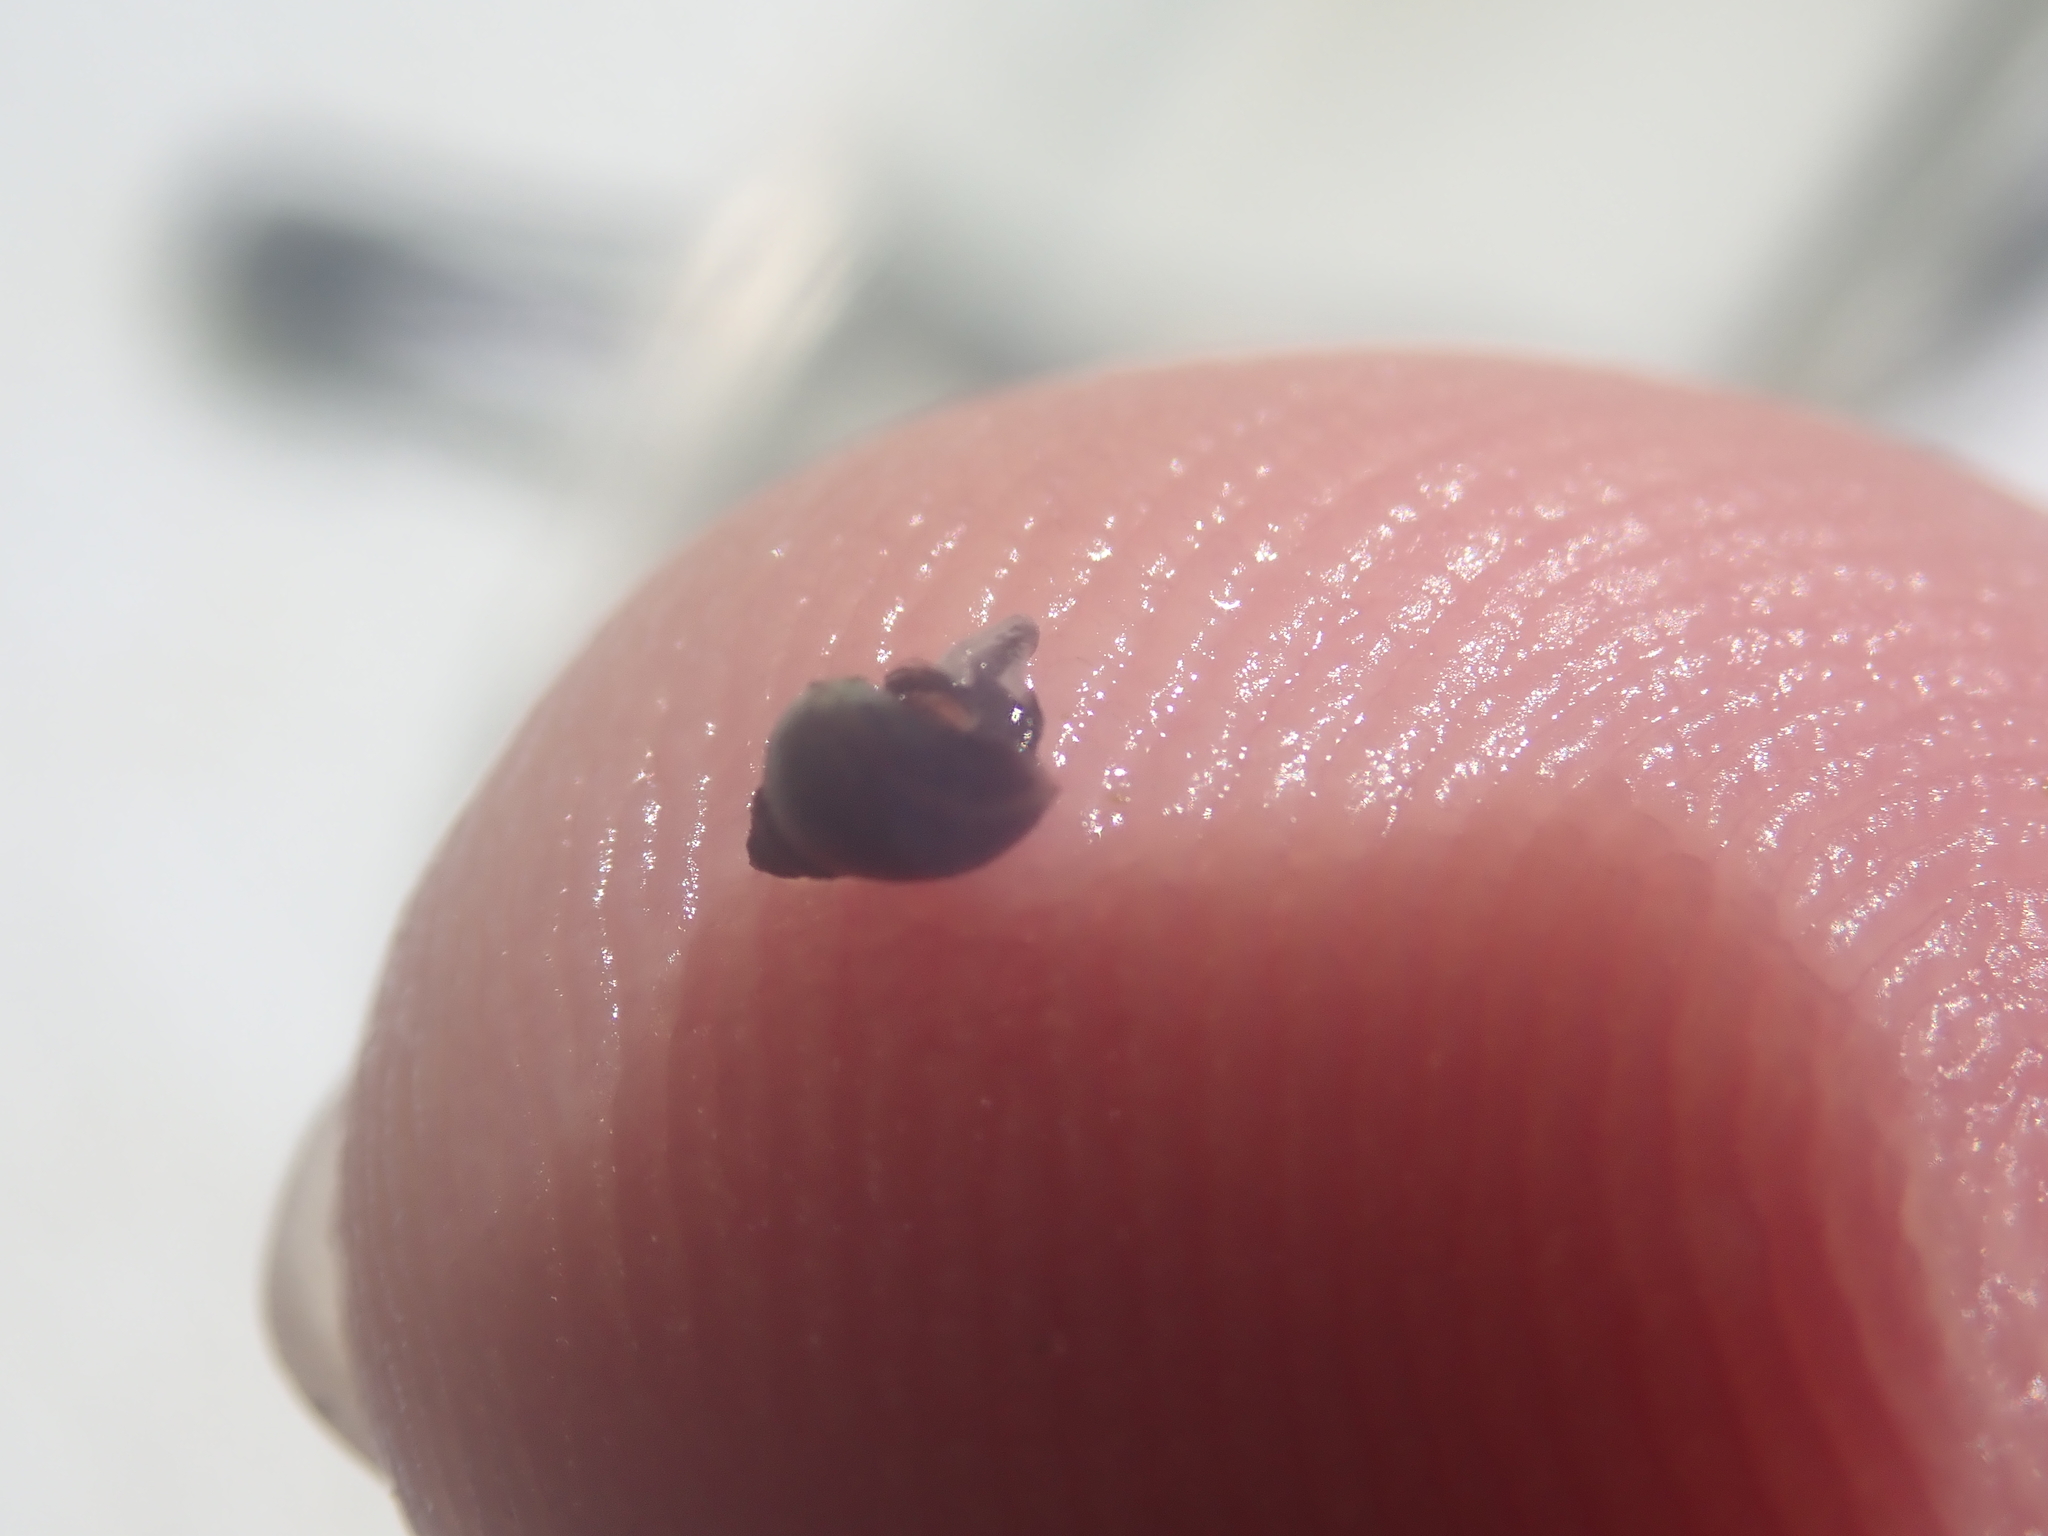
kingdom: Animalia
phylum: Mollusca
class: Gastropoda
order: Littorinimorpha
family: Littorinidae
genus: Austrolittorina
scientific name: Austrolittorina antipodum
